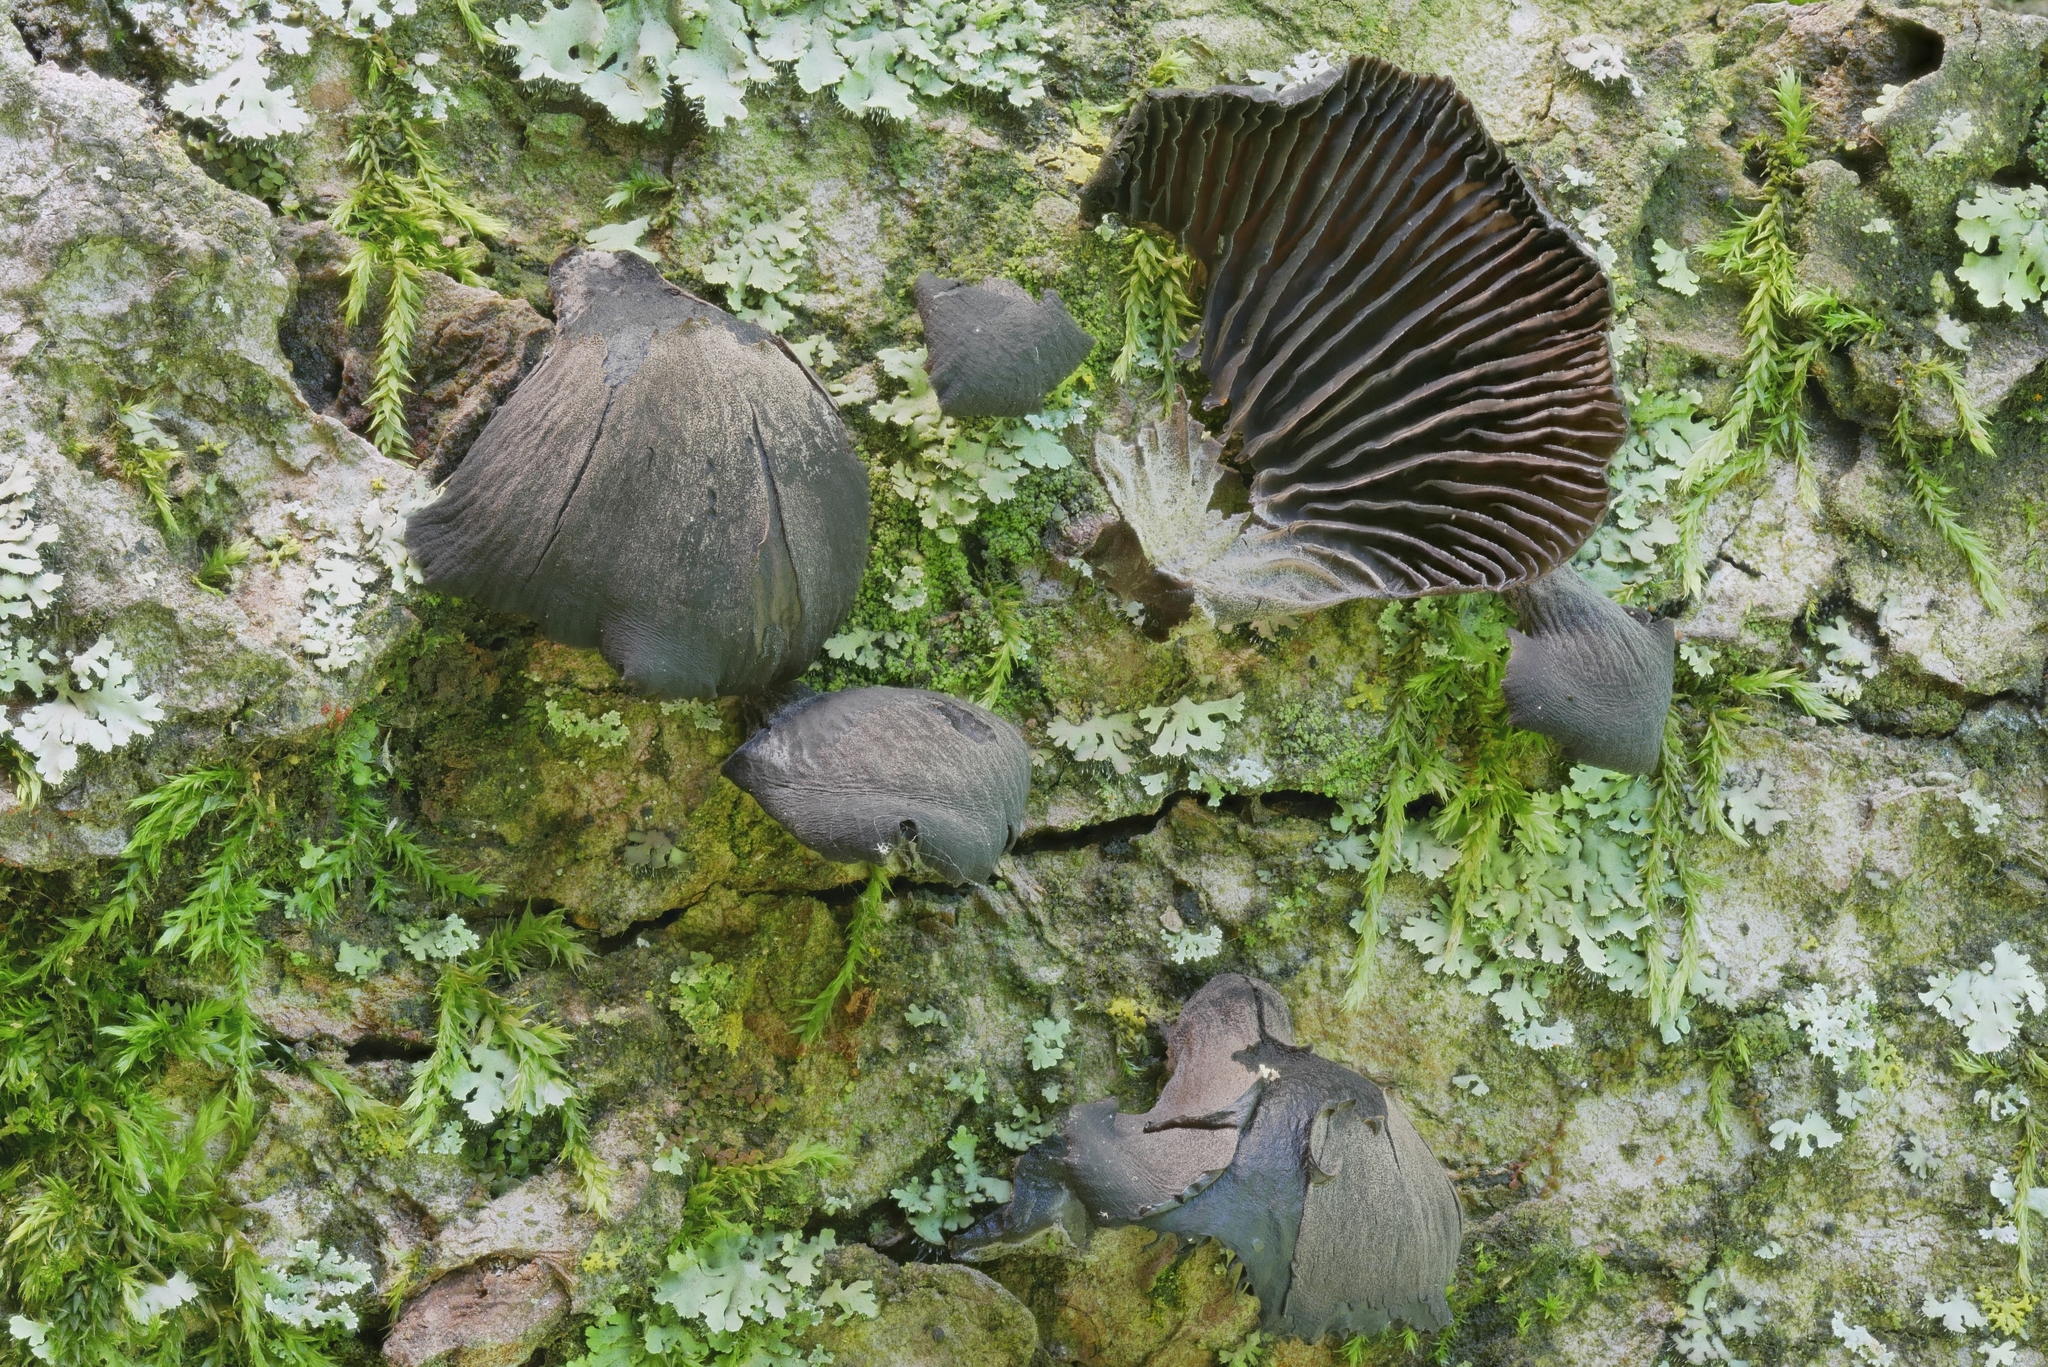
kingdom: Fungi
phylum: Basidiomycota
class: Agaricomycetes
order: Agaricales
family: Pleurotaceae
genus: Resupinatus
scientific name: Resupinatus applicatus
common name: Smoked oysterling
